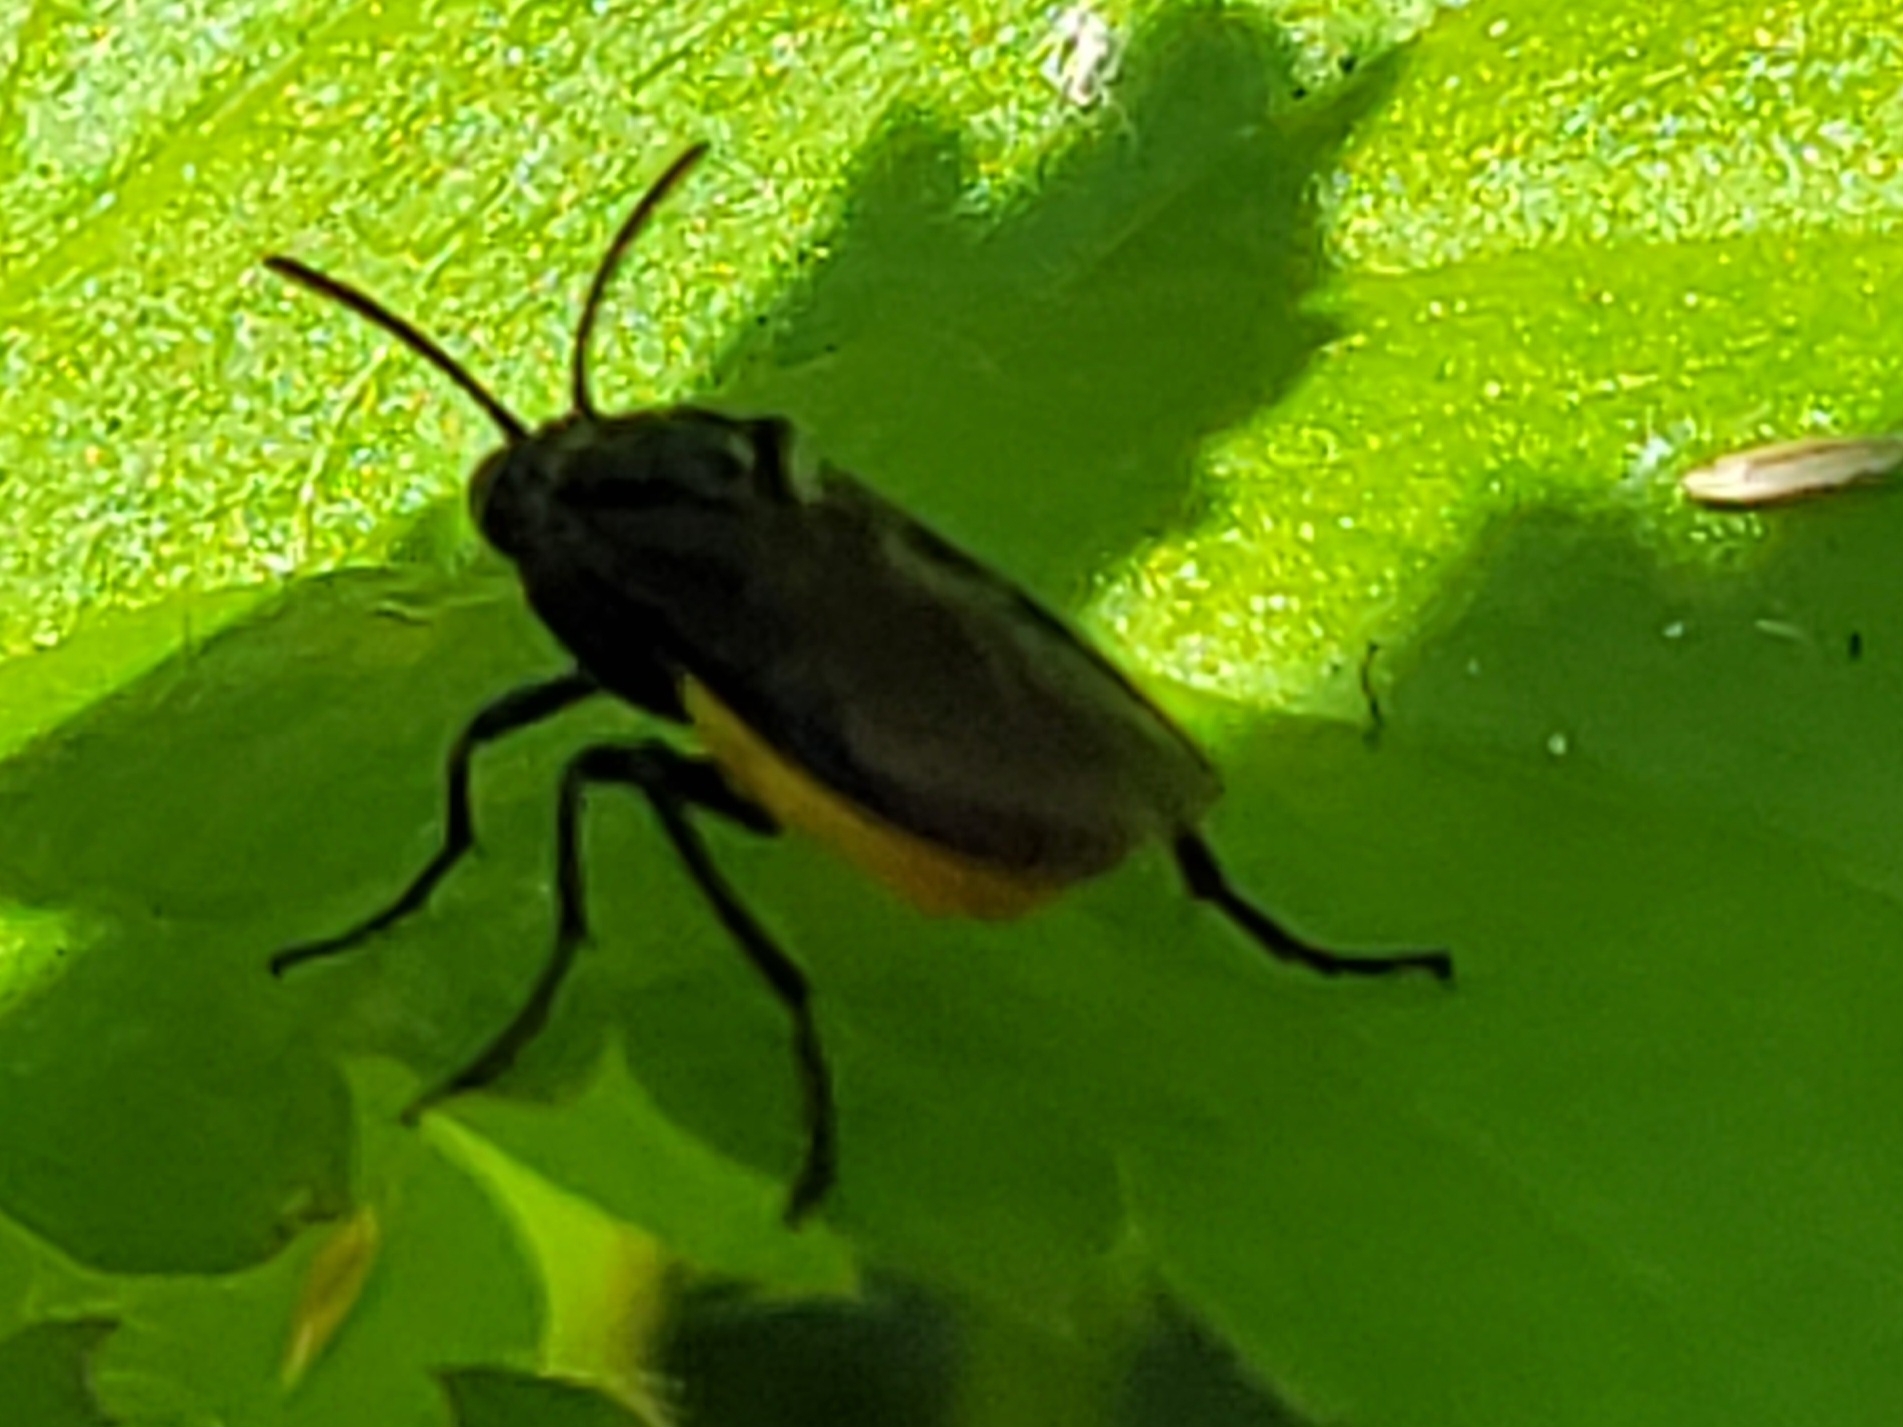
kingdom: Animalia
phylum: Arthropoda
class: Insecta
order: Hymenoptera
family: Argidae
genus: Arge
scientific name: Arge pagana
